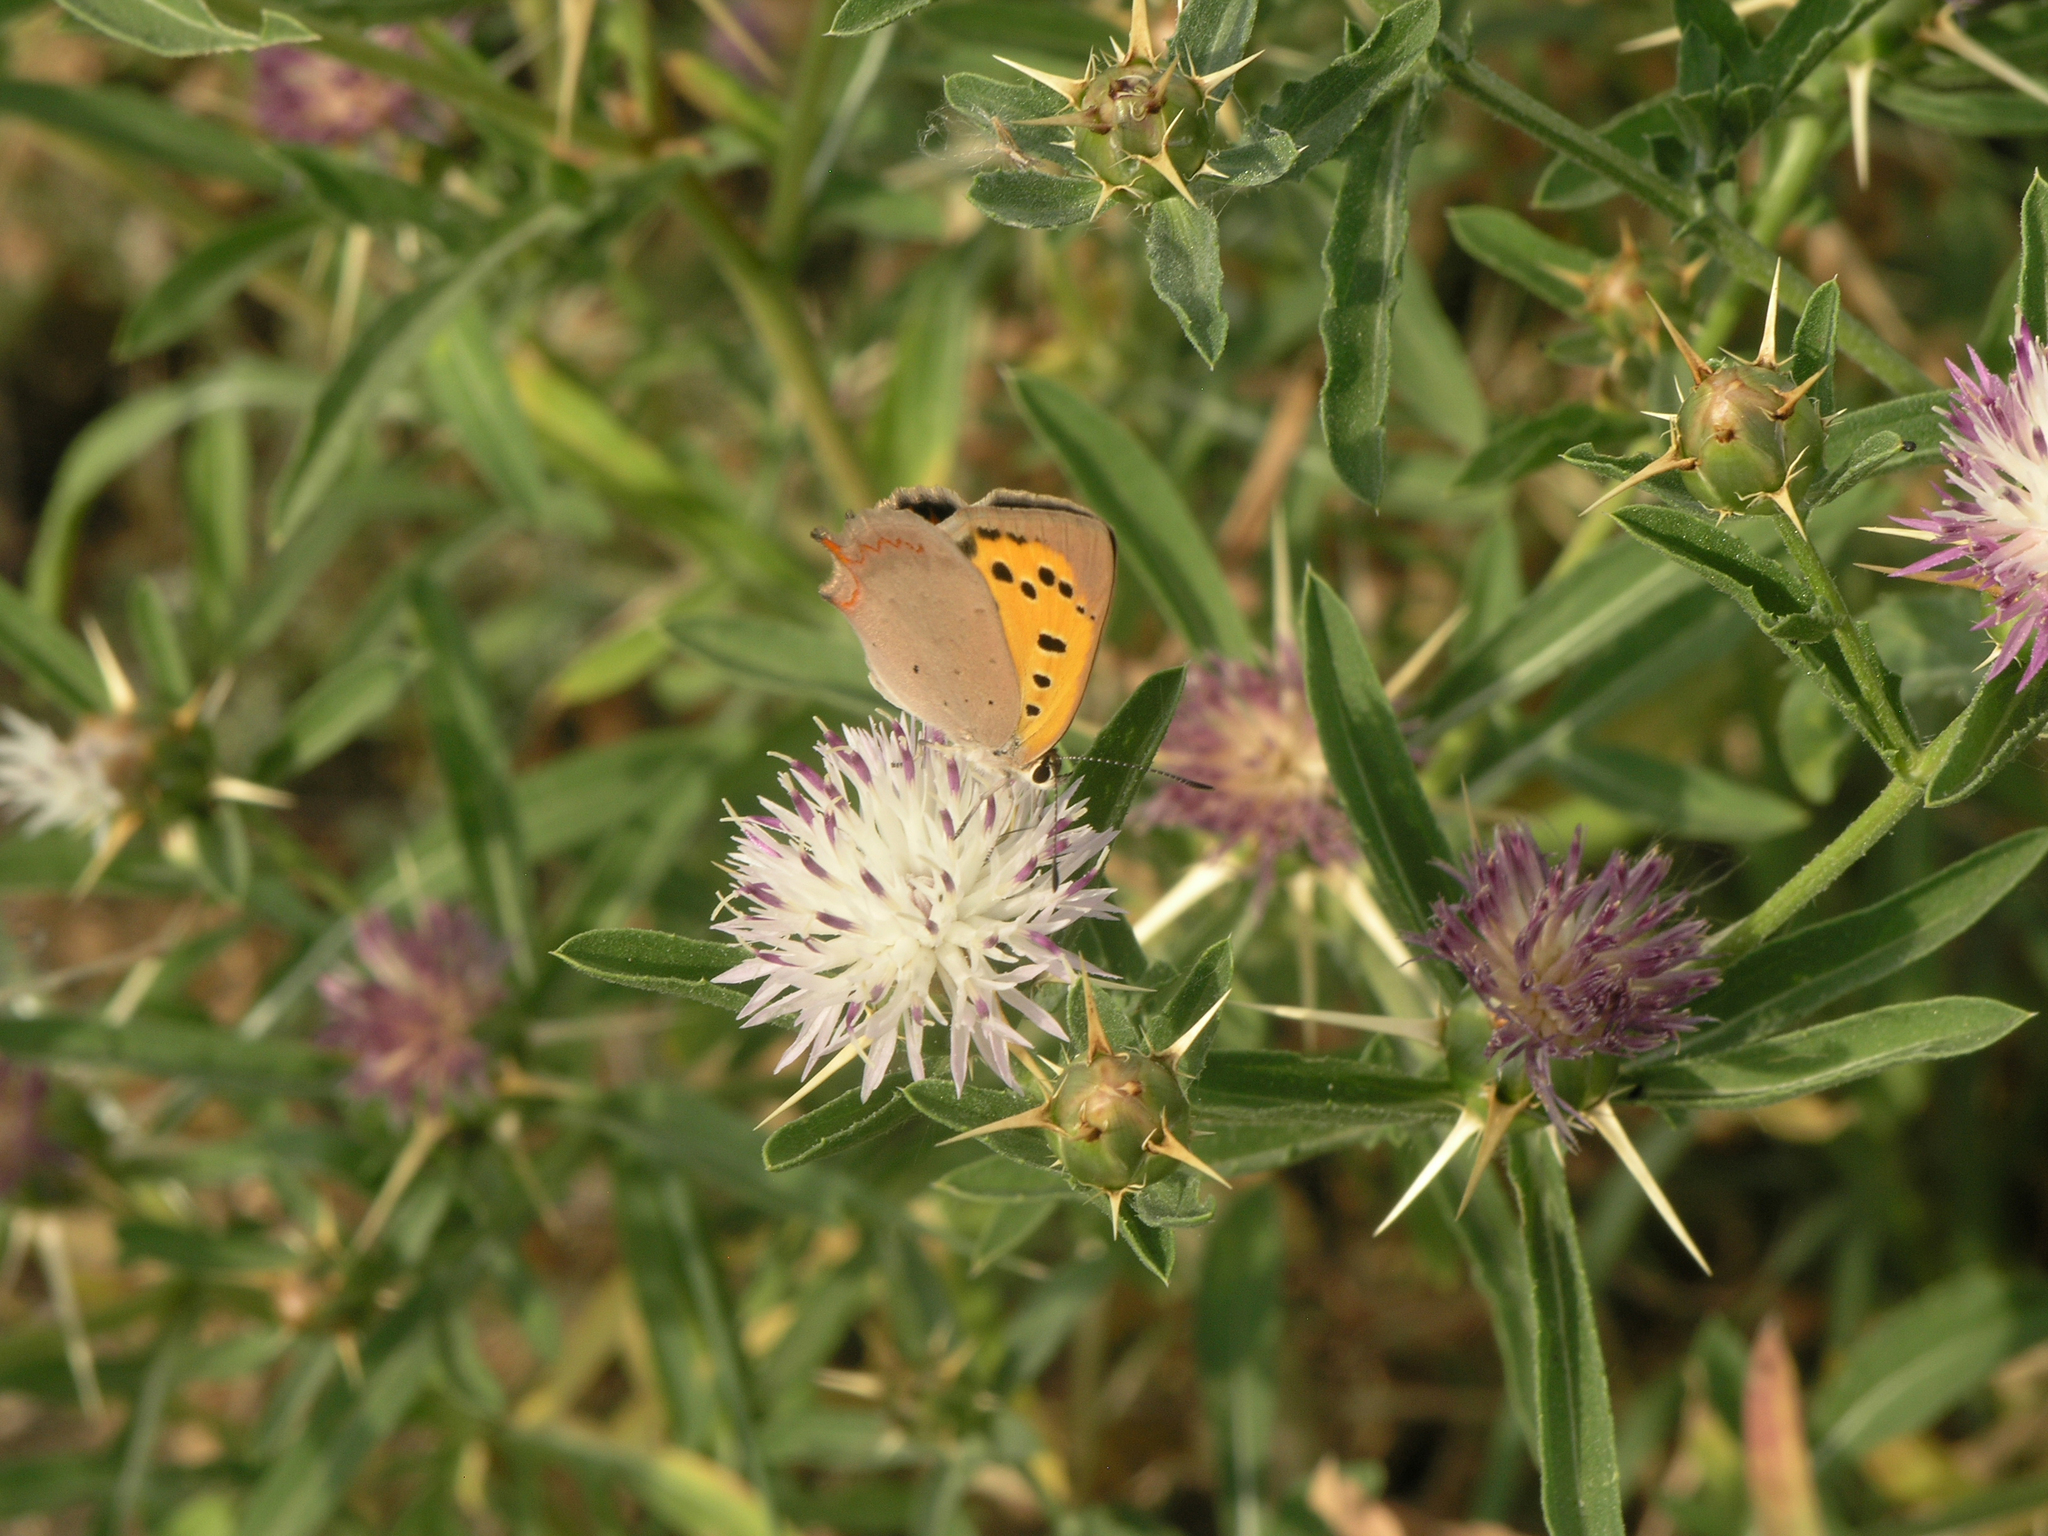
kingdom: Plantae
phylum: Tracheophyta
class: Magnoliopsida
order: Asterales
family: Asteraceae
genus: Centaurea
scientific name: Centaurea iberica
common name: Iberian knapweed
